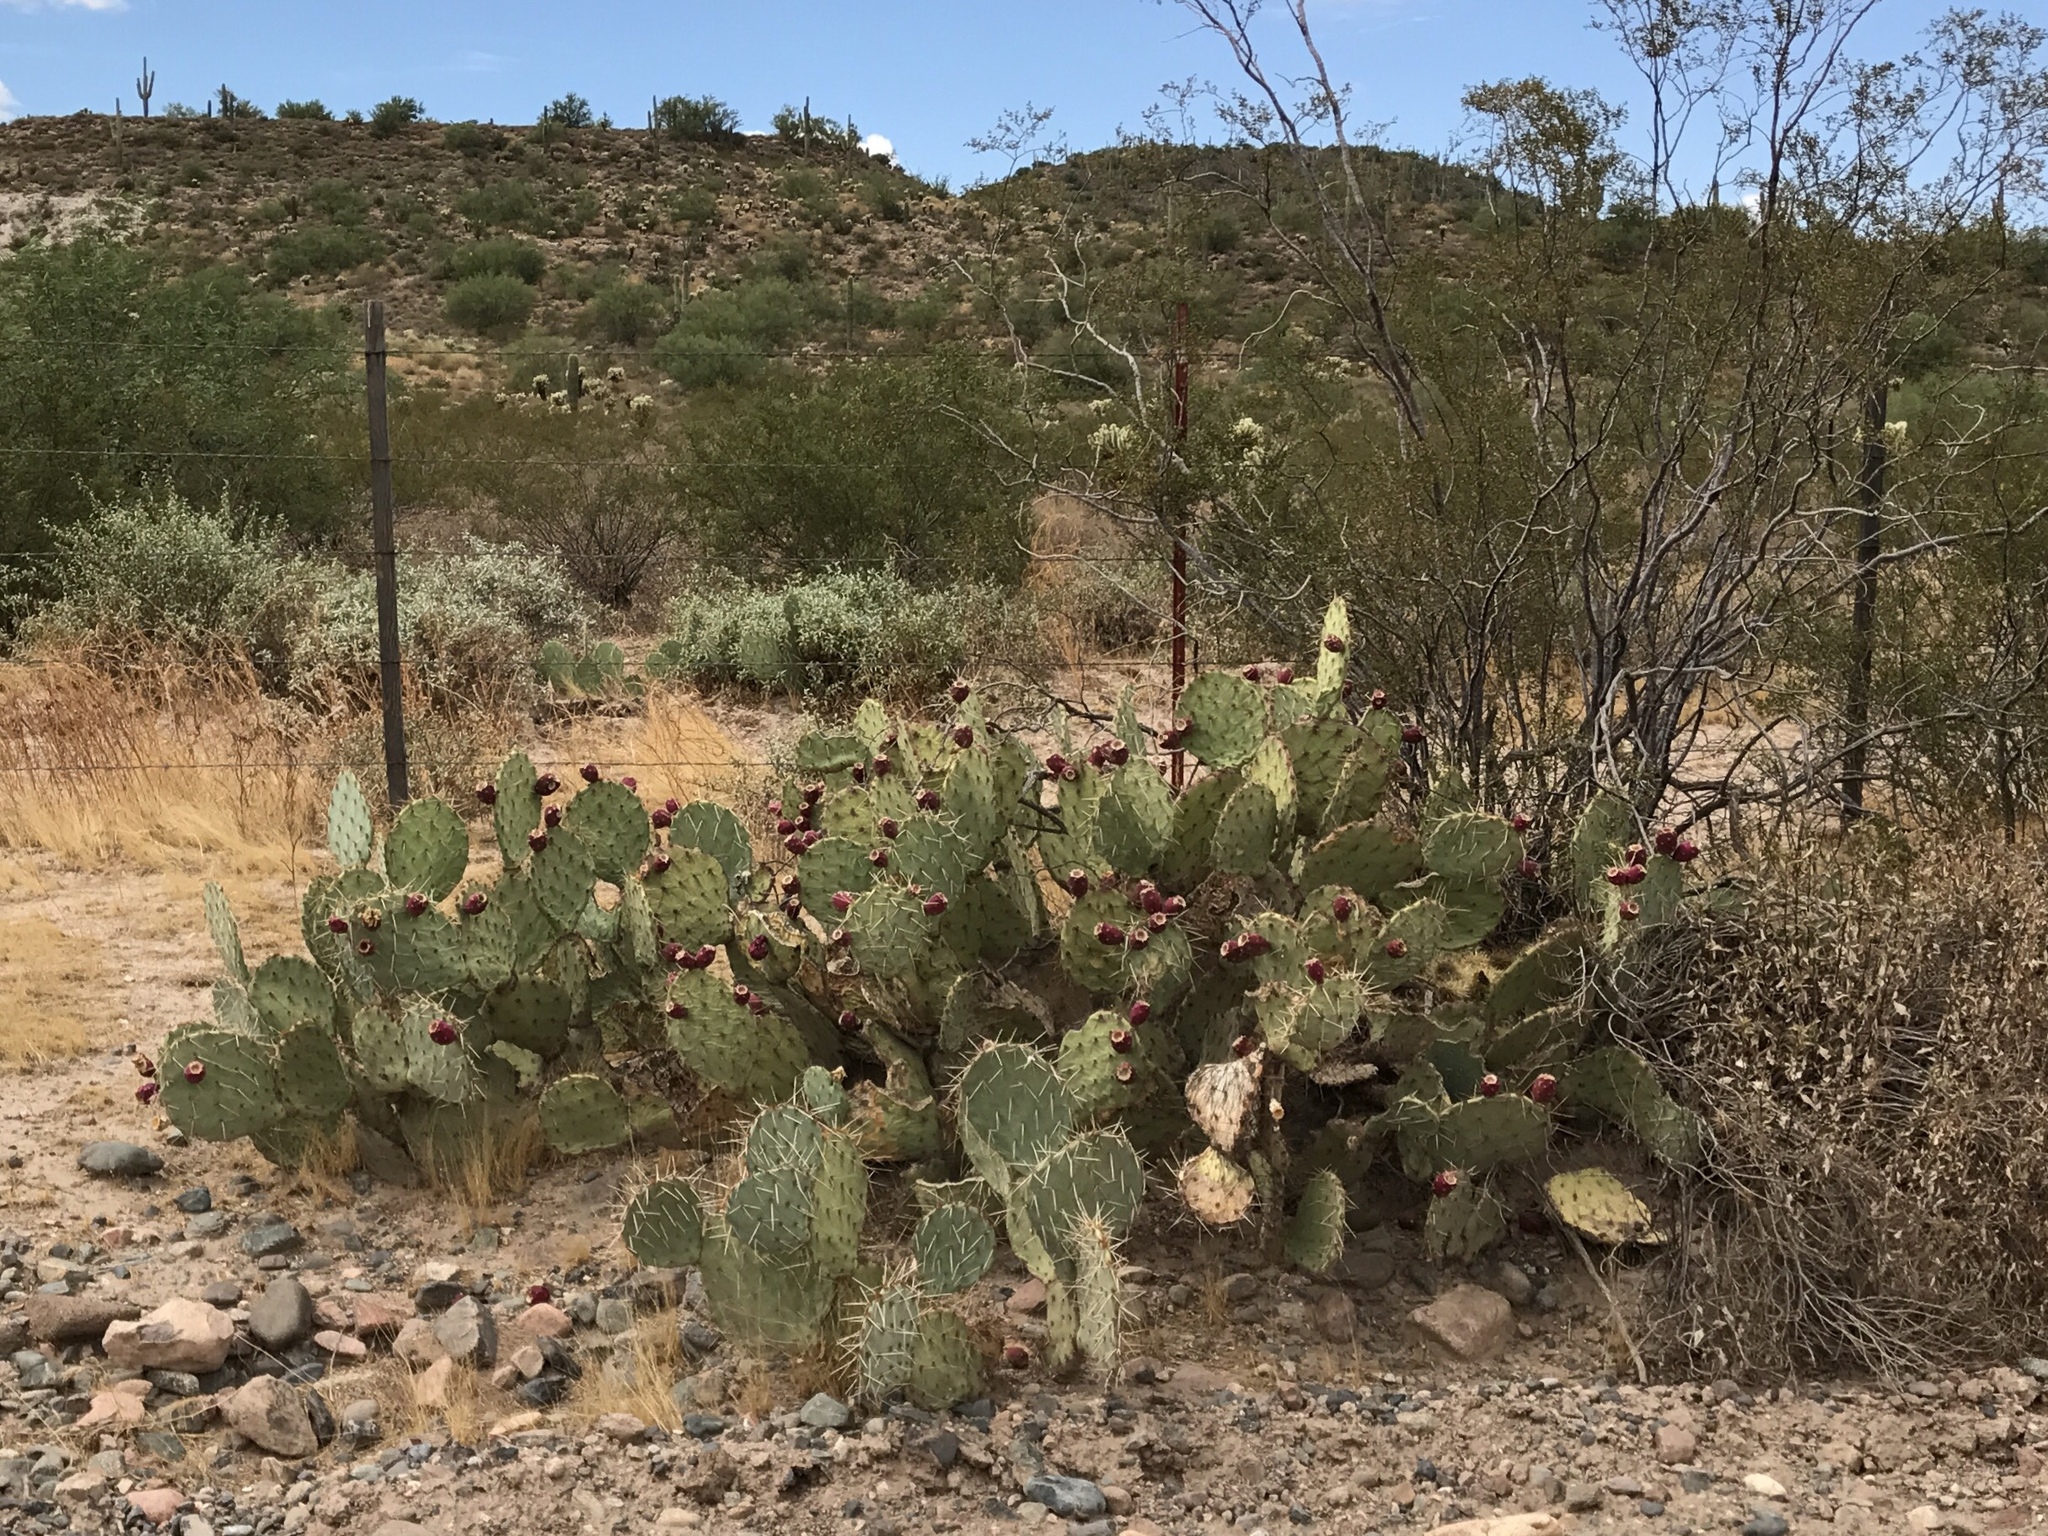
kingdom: Plantae
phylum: Tracheophyta
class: Magnoliopsida
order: Caryophyllales
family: Cactaceae
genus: Opuntia
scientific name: Opuntia engelmannii
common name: Cactus-apple
